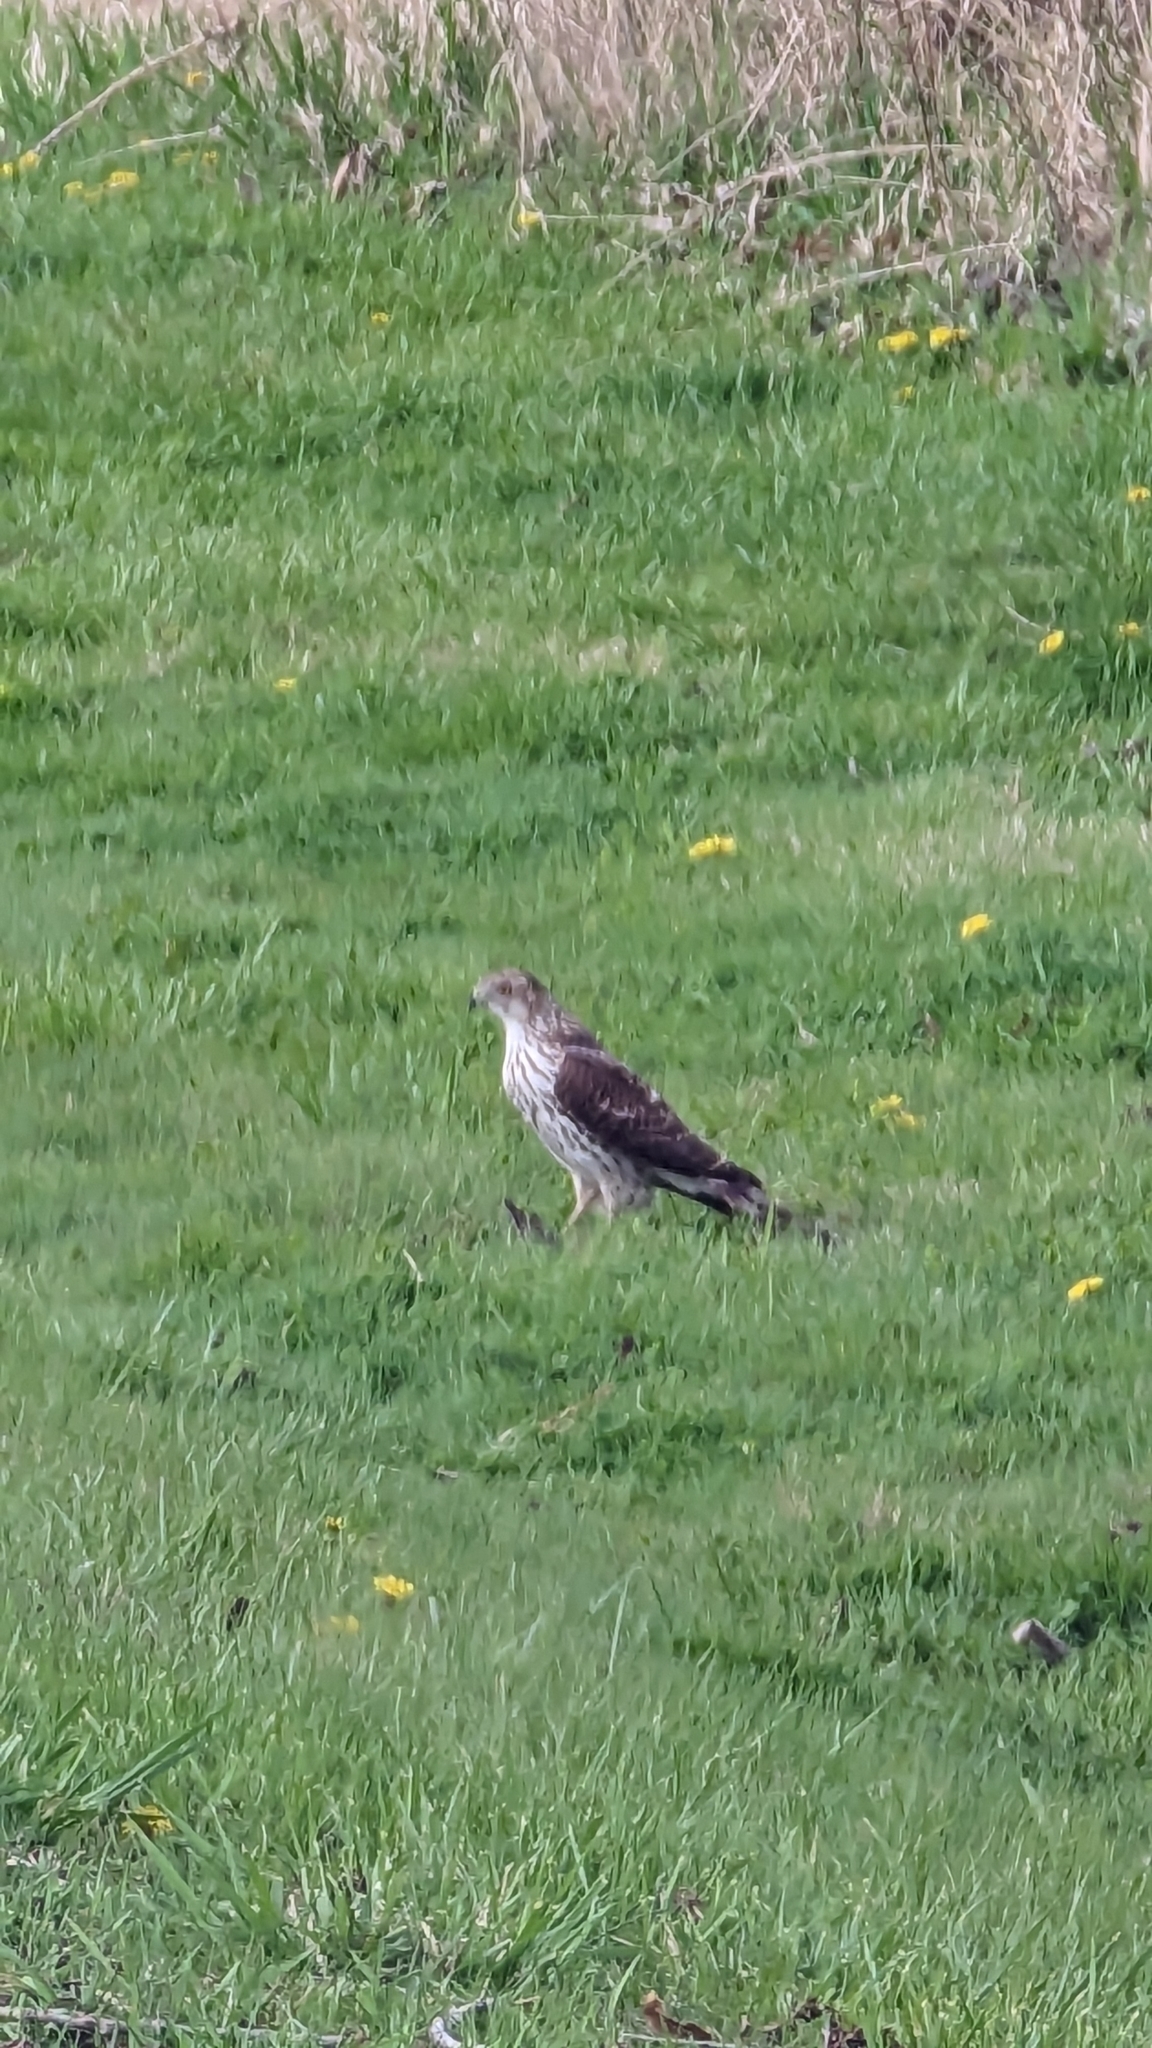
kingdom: Animalia
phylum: Chordata
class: Aves
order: Accipitriformes
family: Accipitridae
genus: Accipiter
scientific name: Accipiter cooperii
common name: Cooper's hawk
